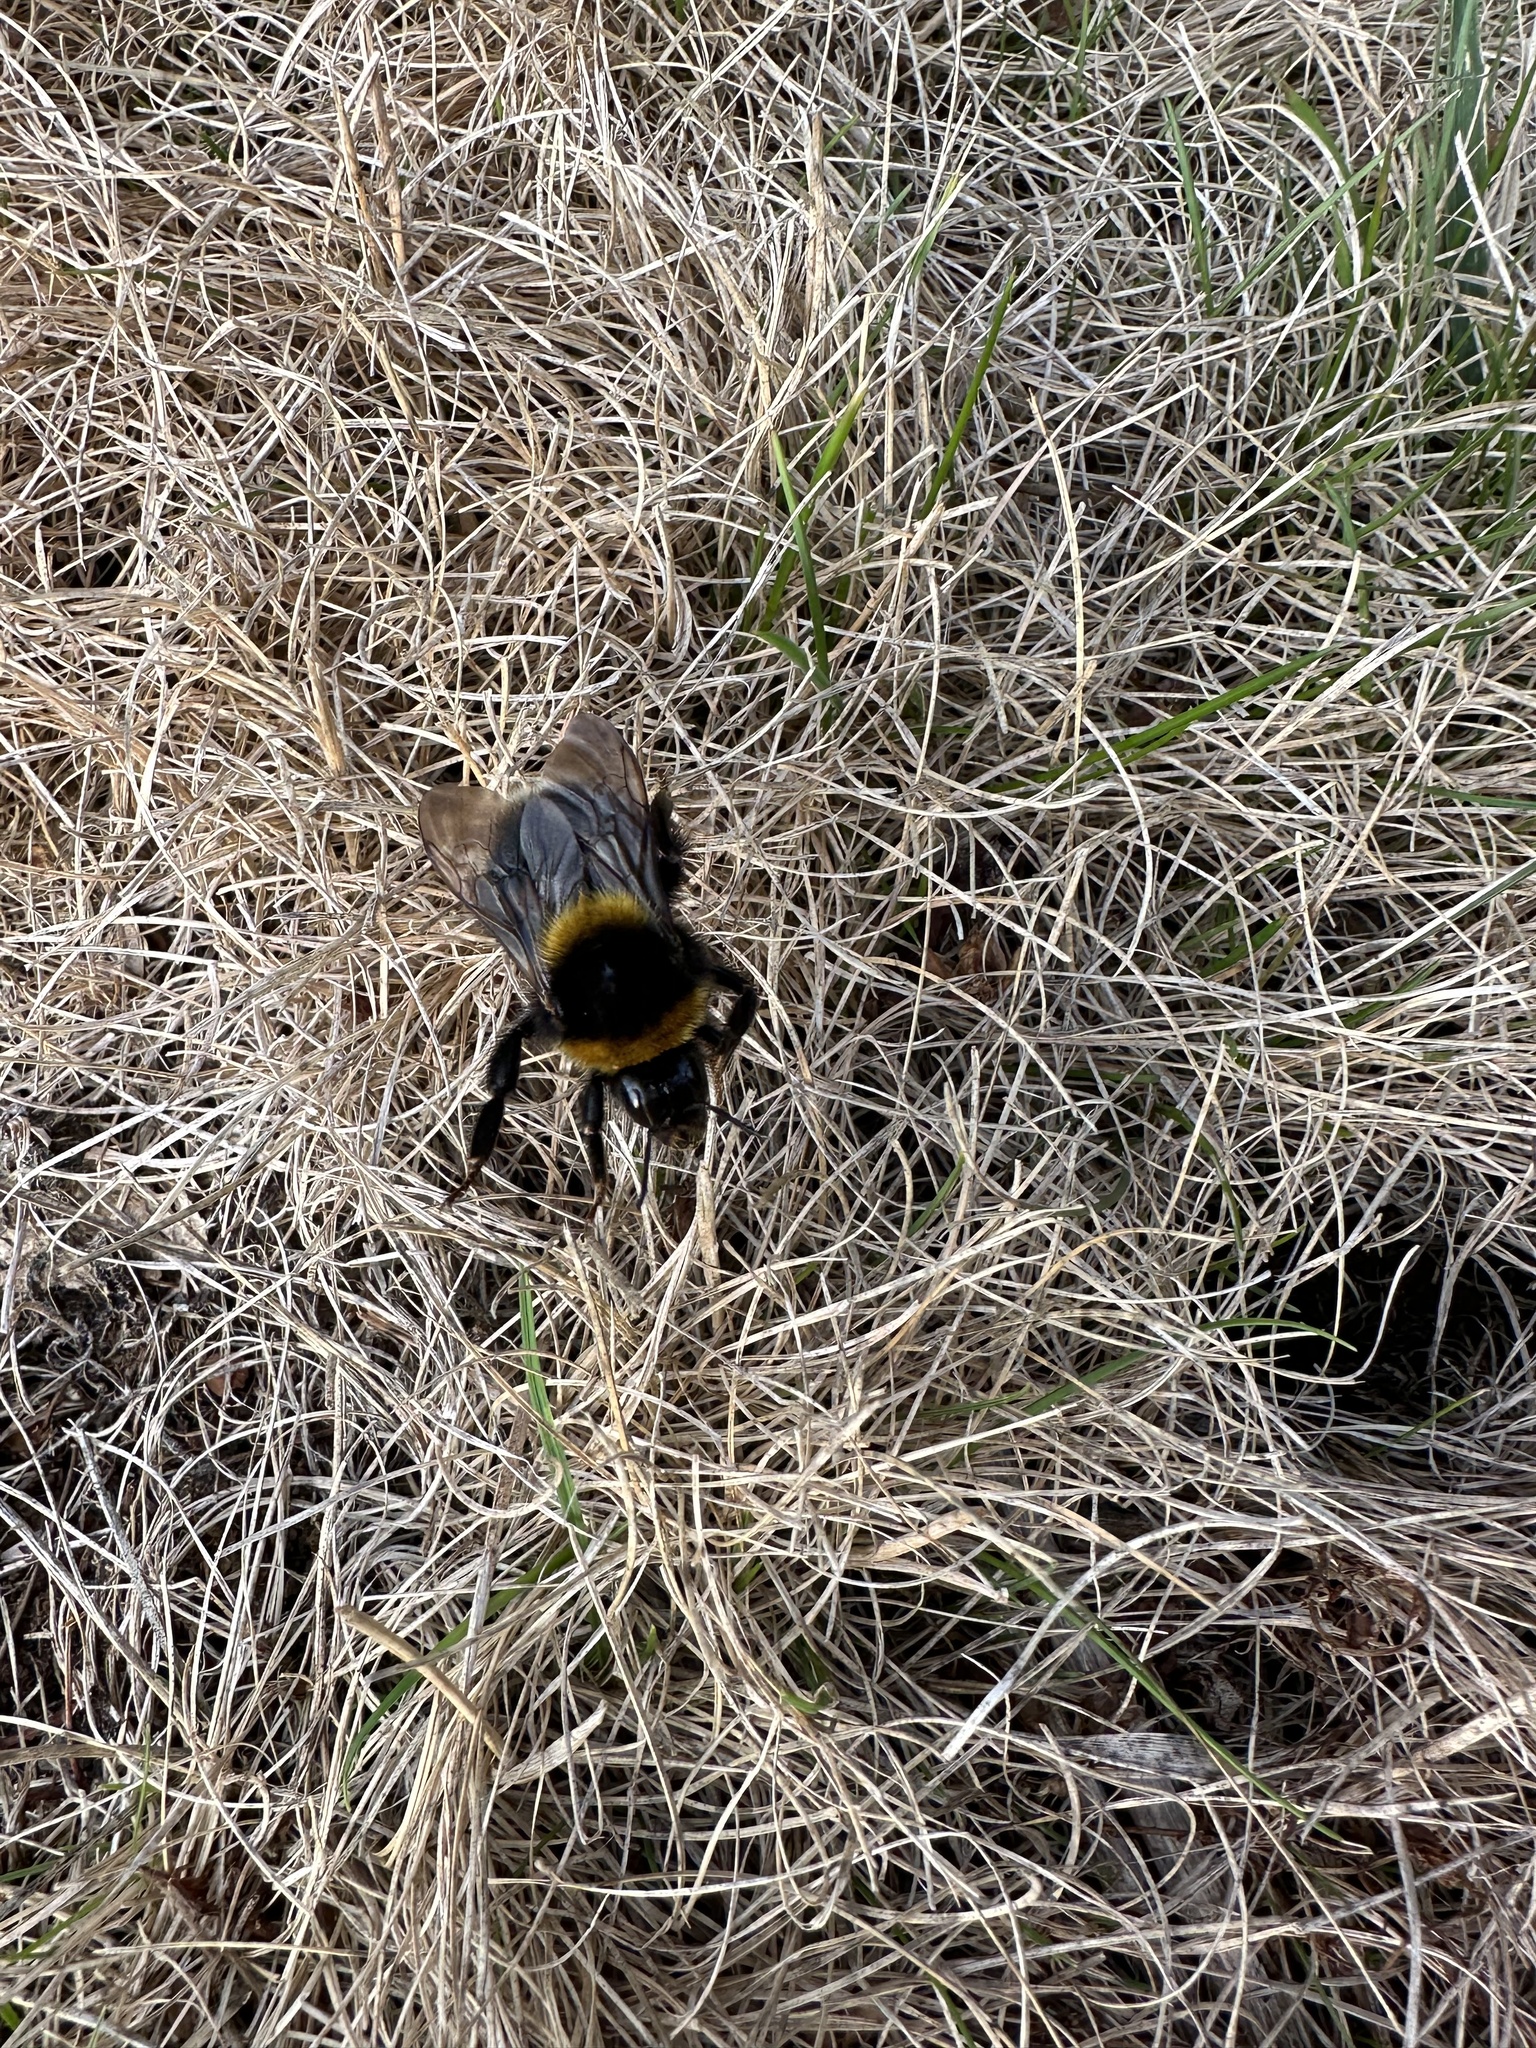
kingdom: Animalia
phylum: Arthropoda
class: Insecta
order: Hymenoptera
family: Apidae
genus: Bombus
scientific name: Bombus ruderatus
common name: Large garden bumblebee
